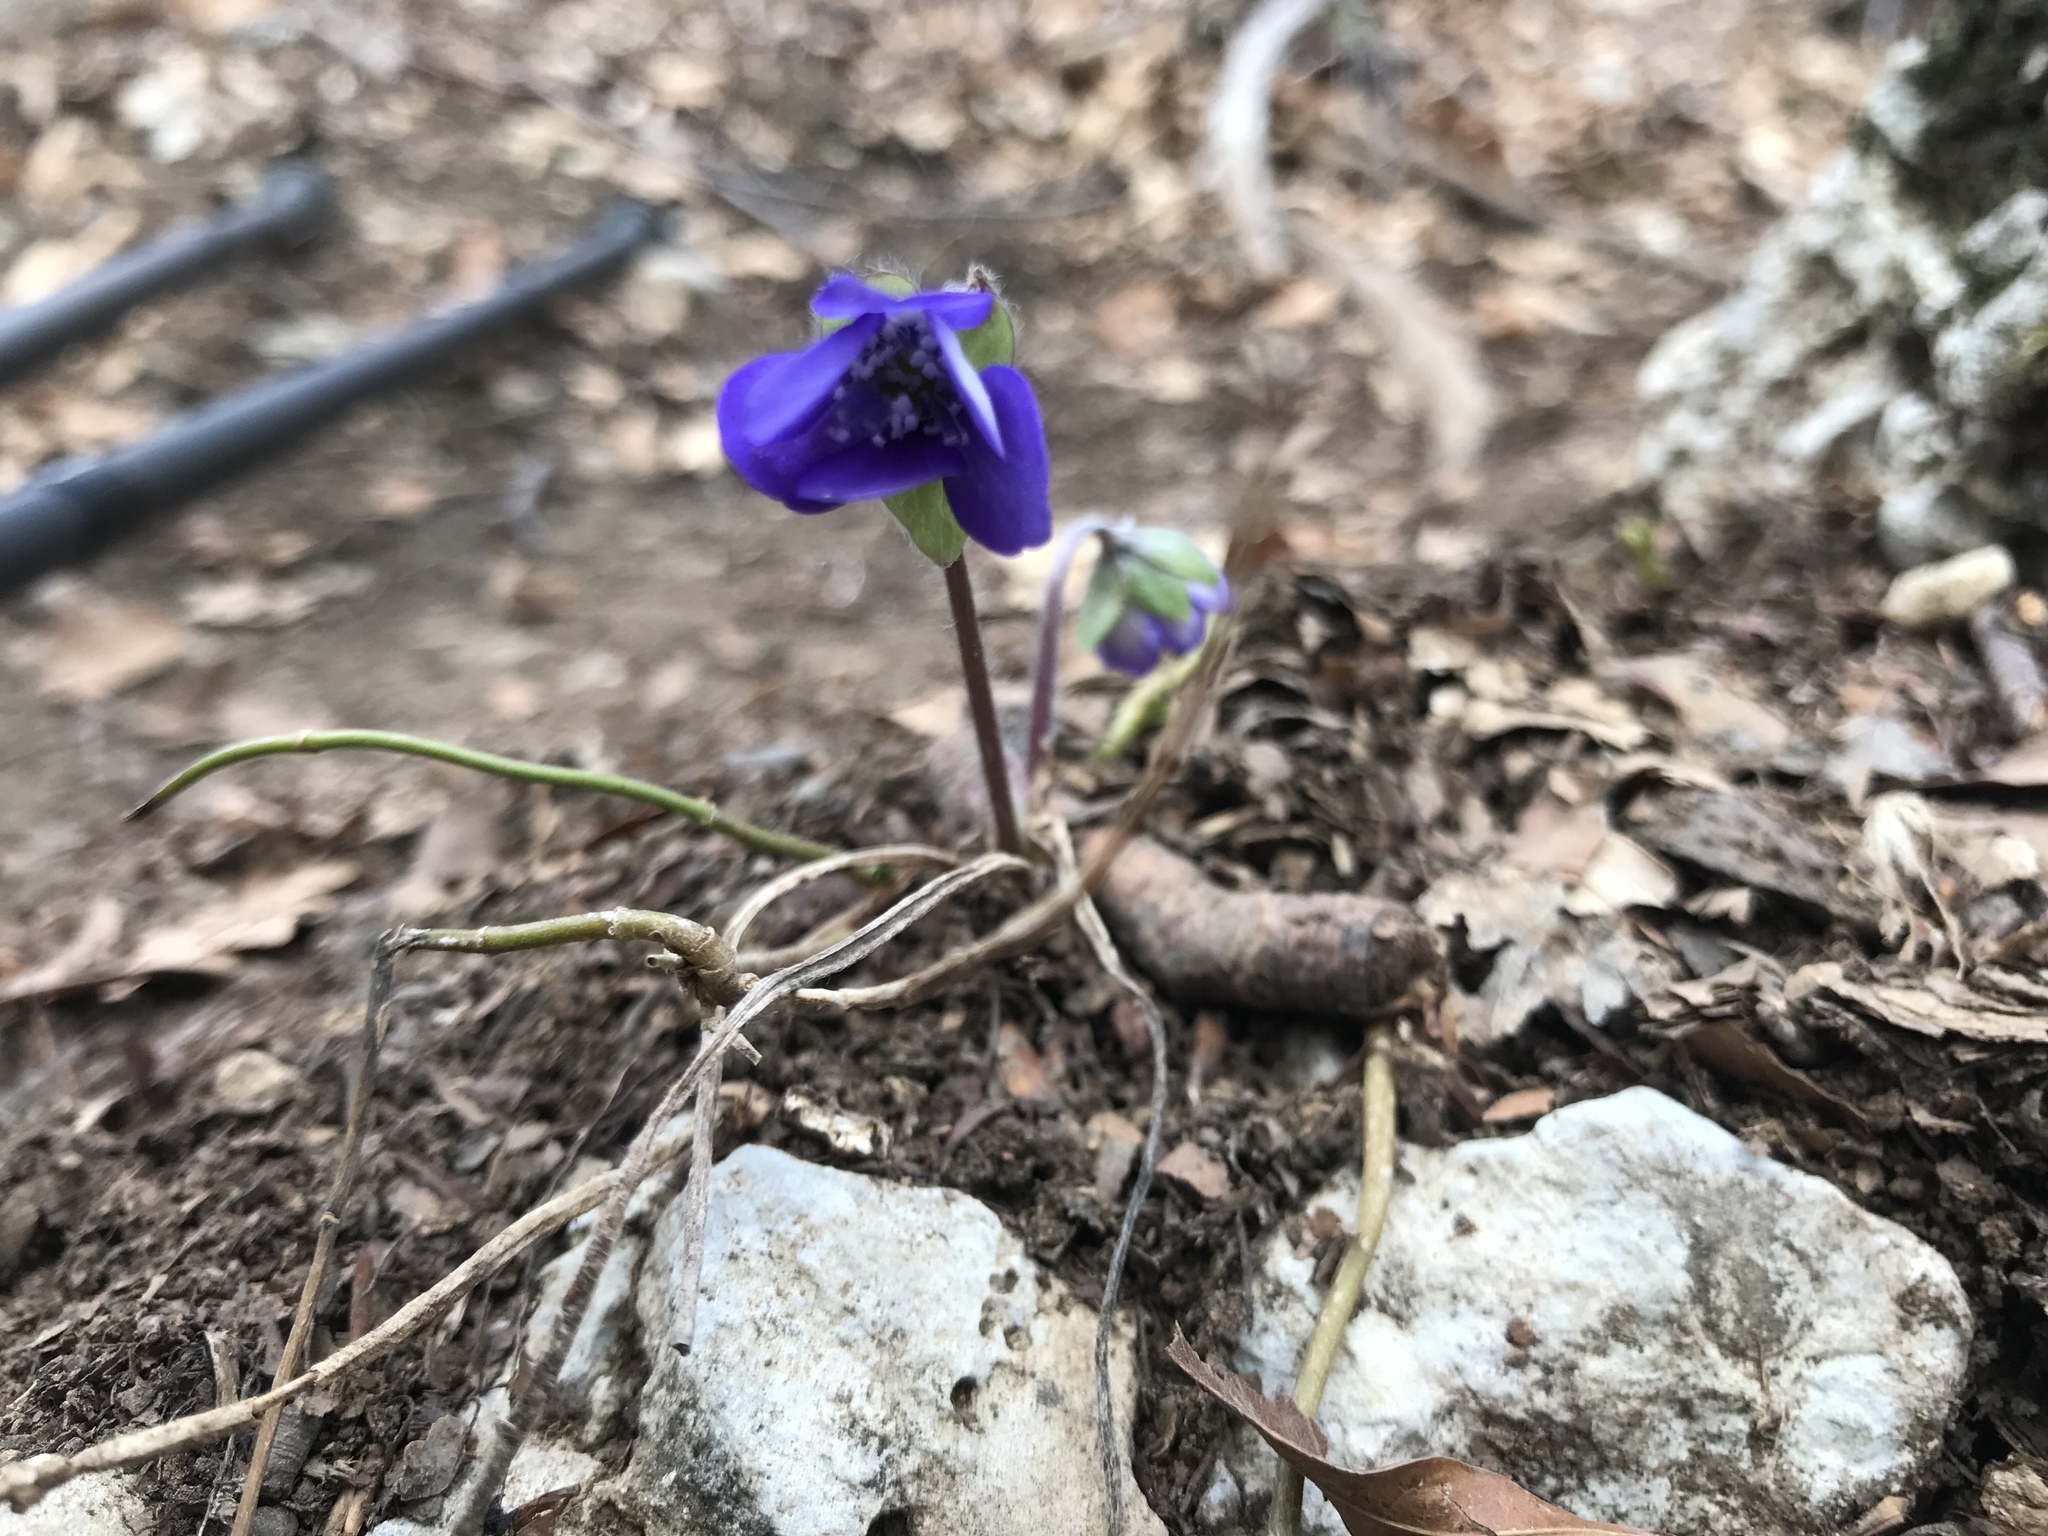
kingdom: Plantae
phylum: Tracheophyta
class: Magnoliopsida
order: Ranunculales
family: Ranunculaceae
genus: Hepatica
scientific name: Hepatica nobilis
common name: Liverleaf
